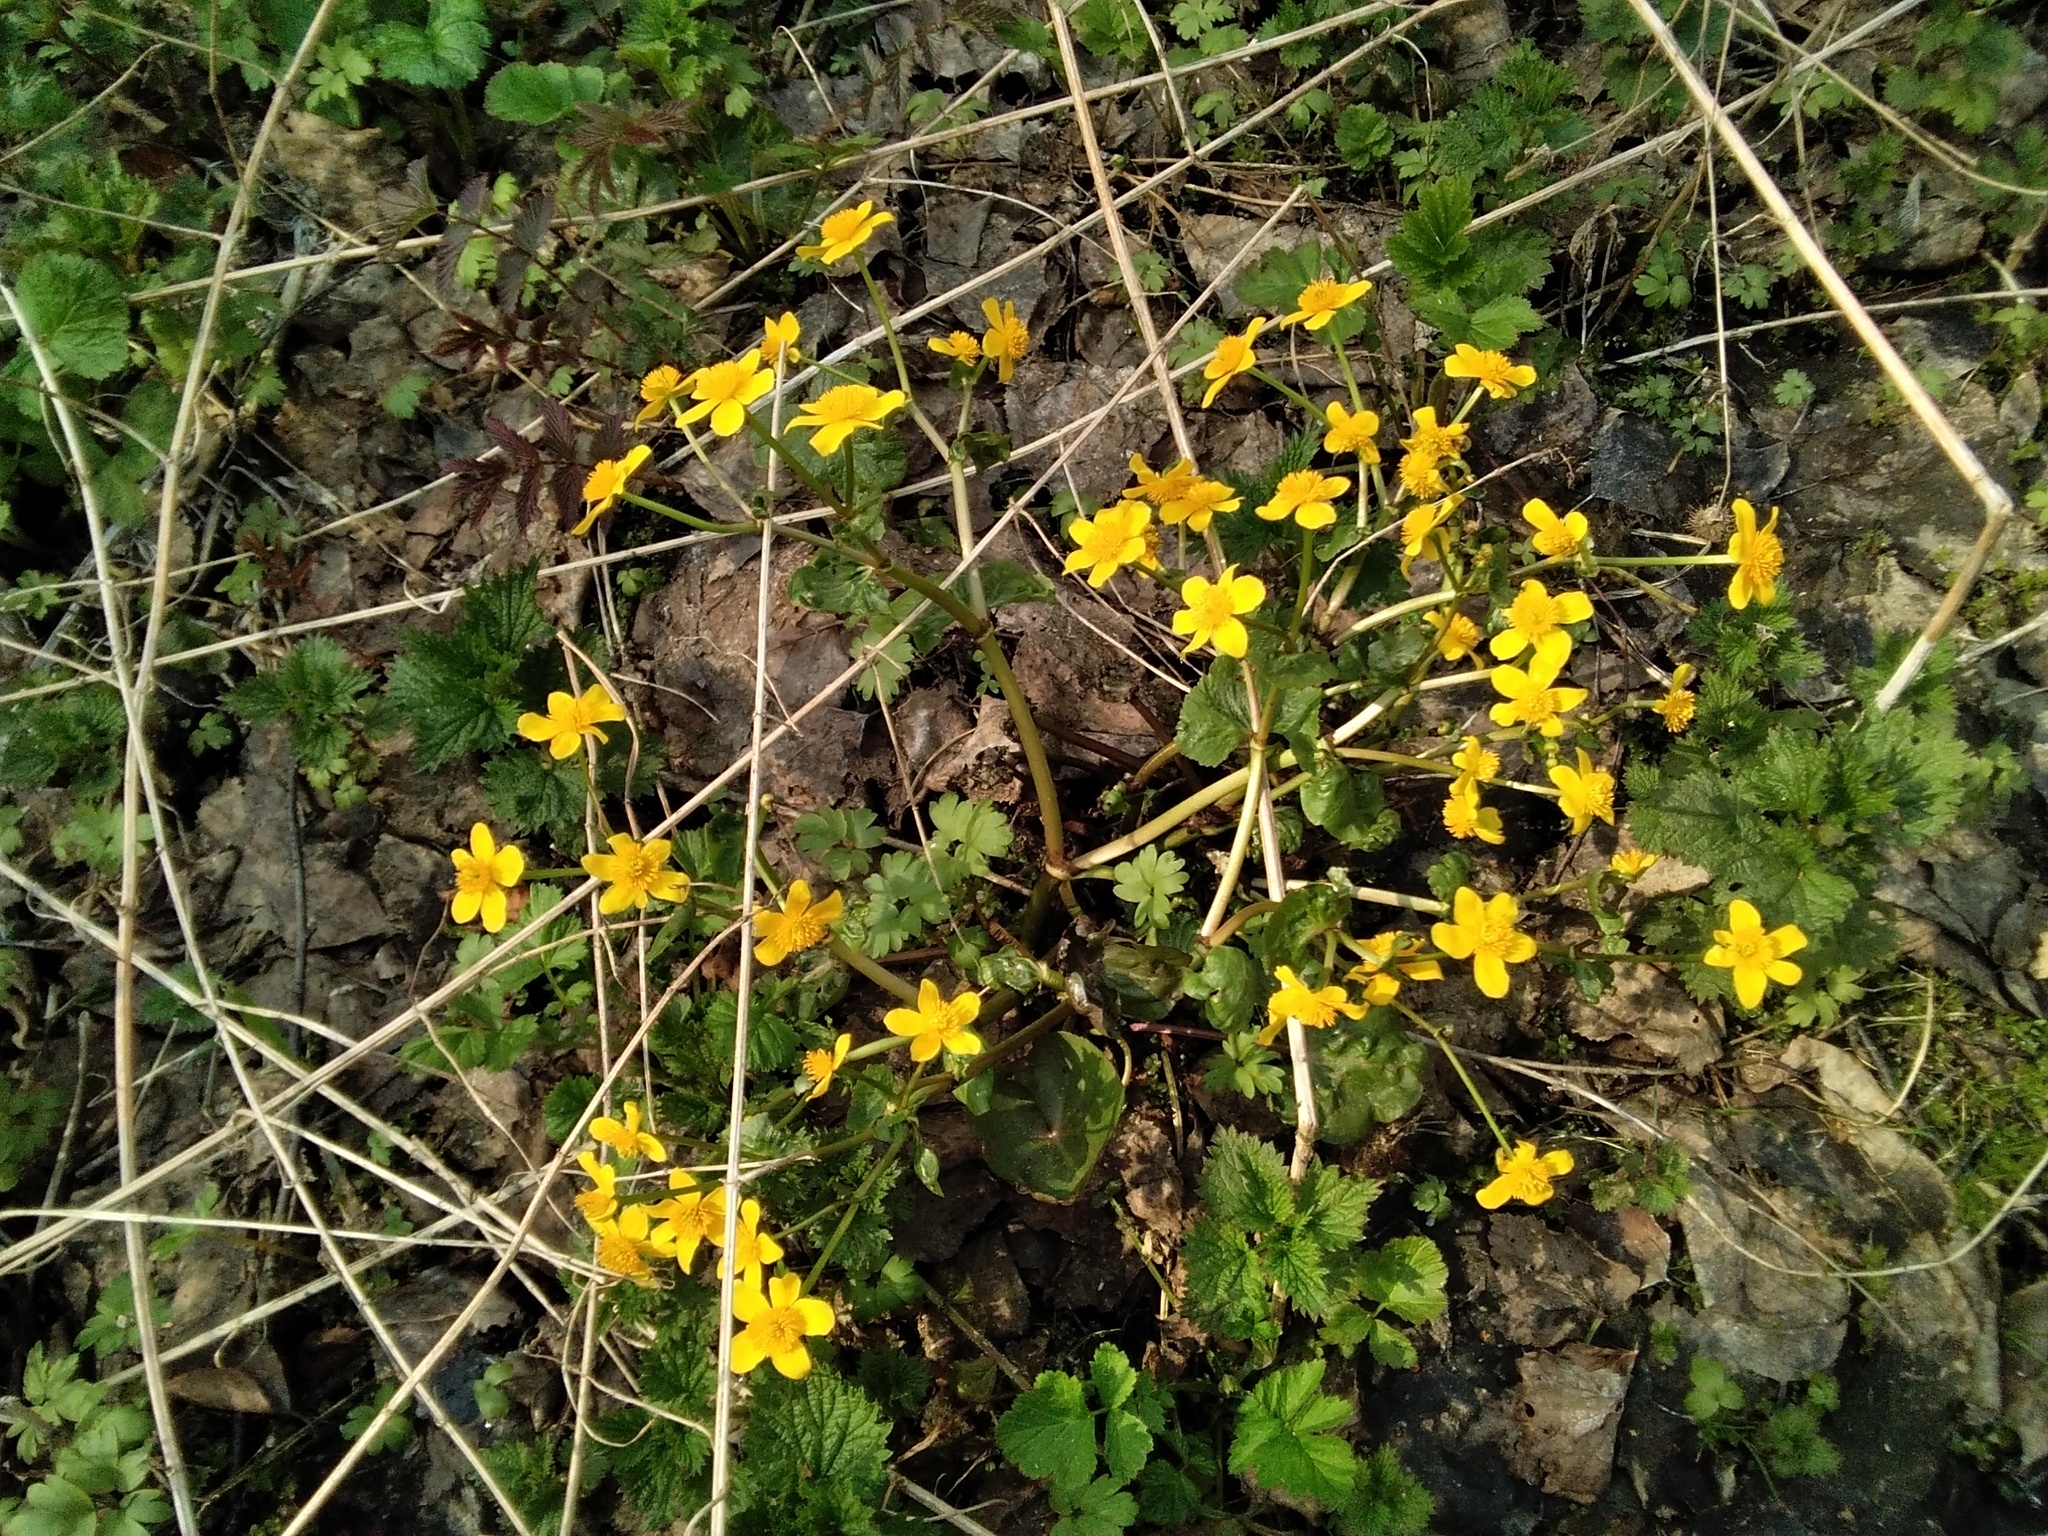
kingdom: Plantae
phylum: Tracheophyta
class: Magnoliopsida
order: Ranunculales
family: Ranunculaceae
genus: Caltha
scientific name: Caltha palustris
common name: Marsh marigold
